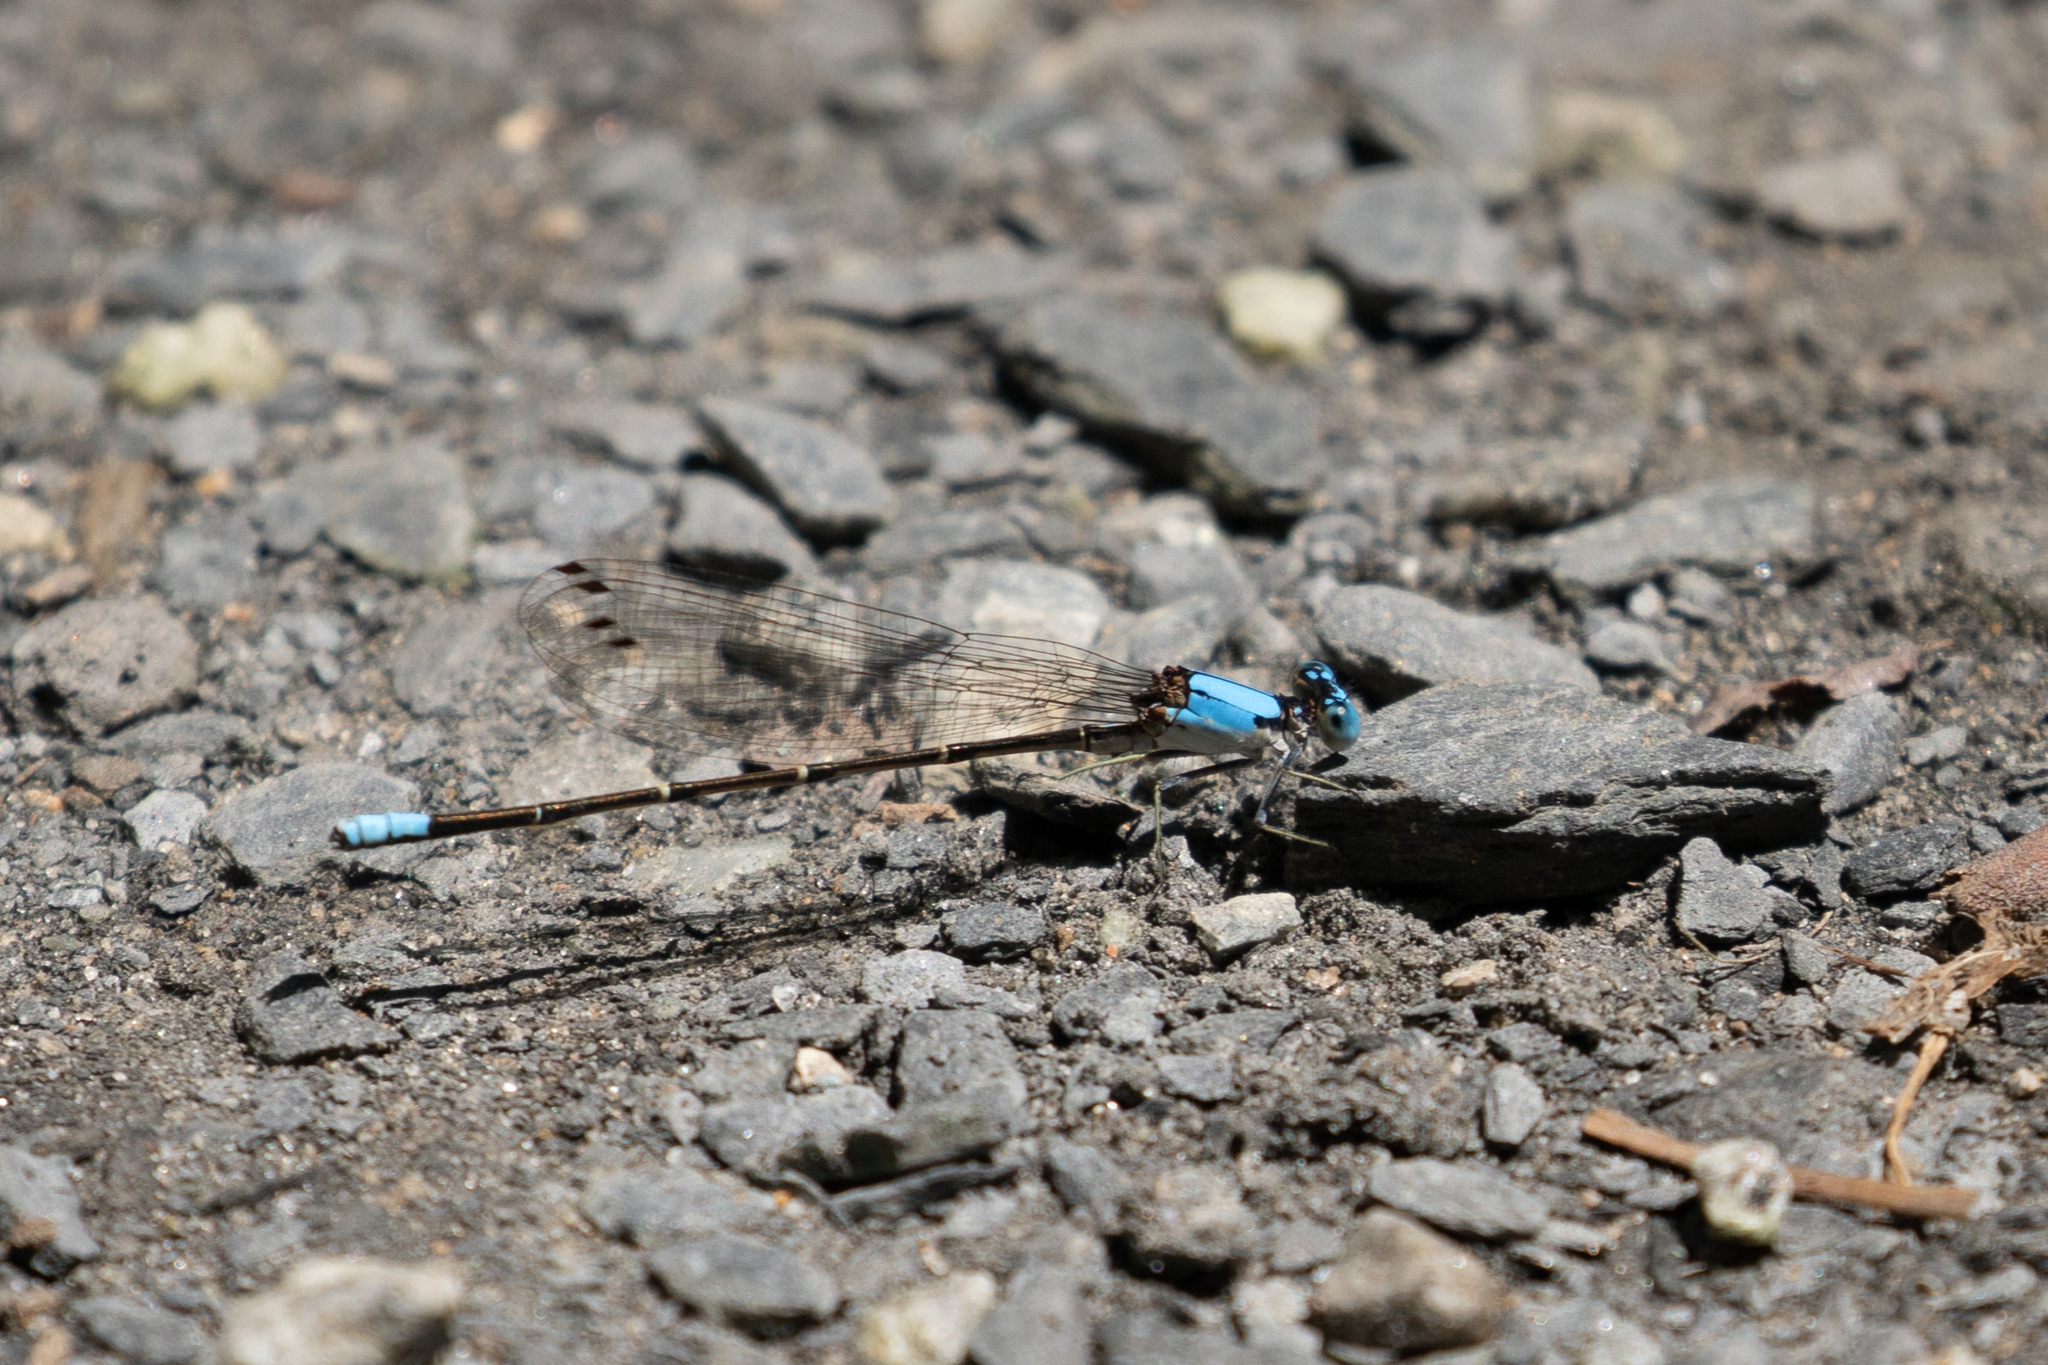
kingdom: Animalia
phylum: Arthropoda
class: Insecta
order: Odonata
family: Coenagrionidae
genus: Argia
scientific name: Argia apicalis
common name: Blue-fronted dancer
